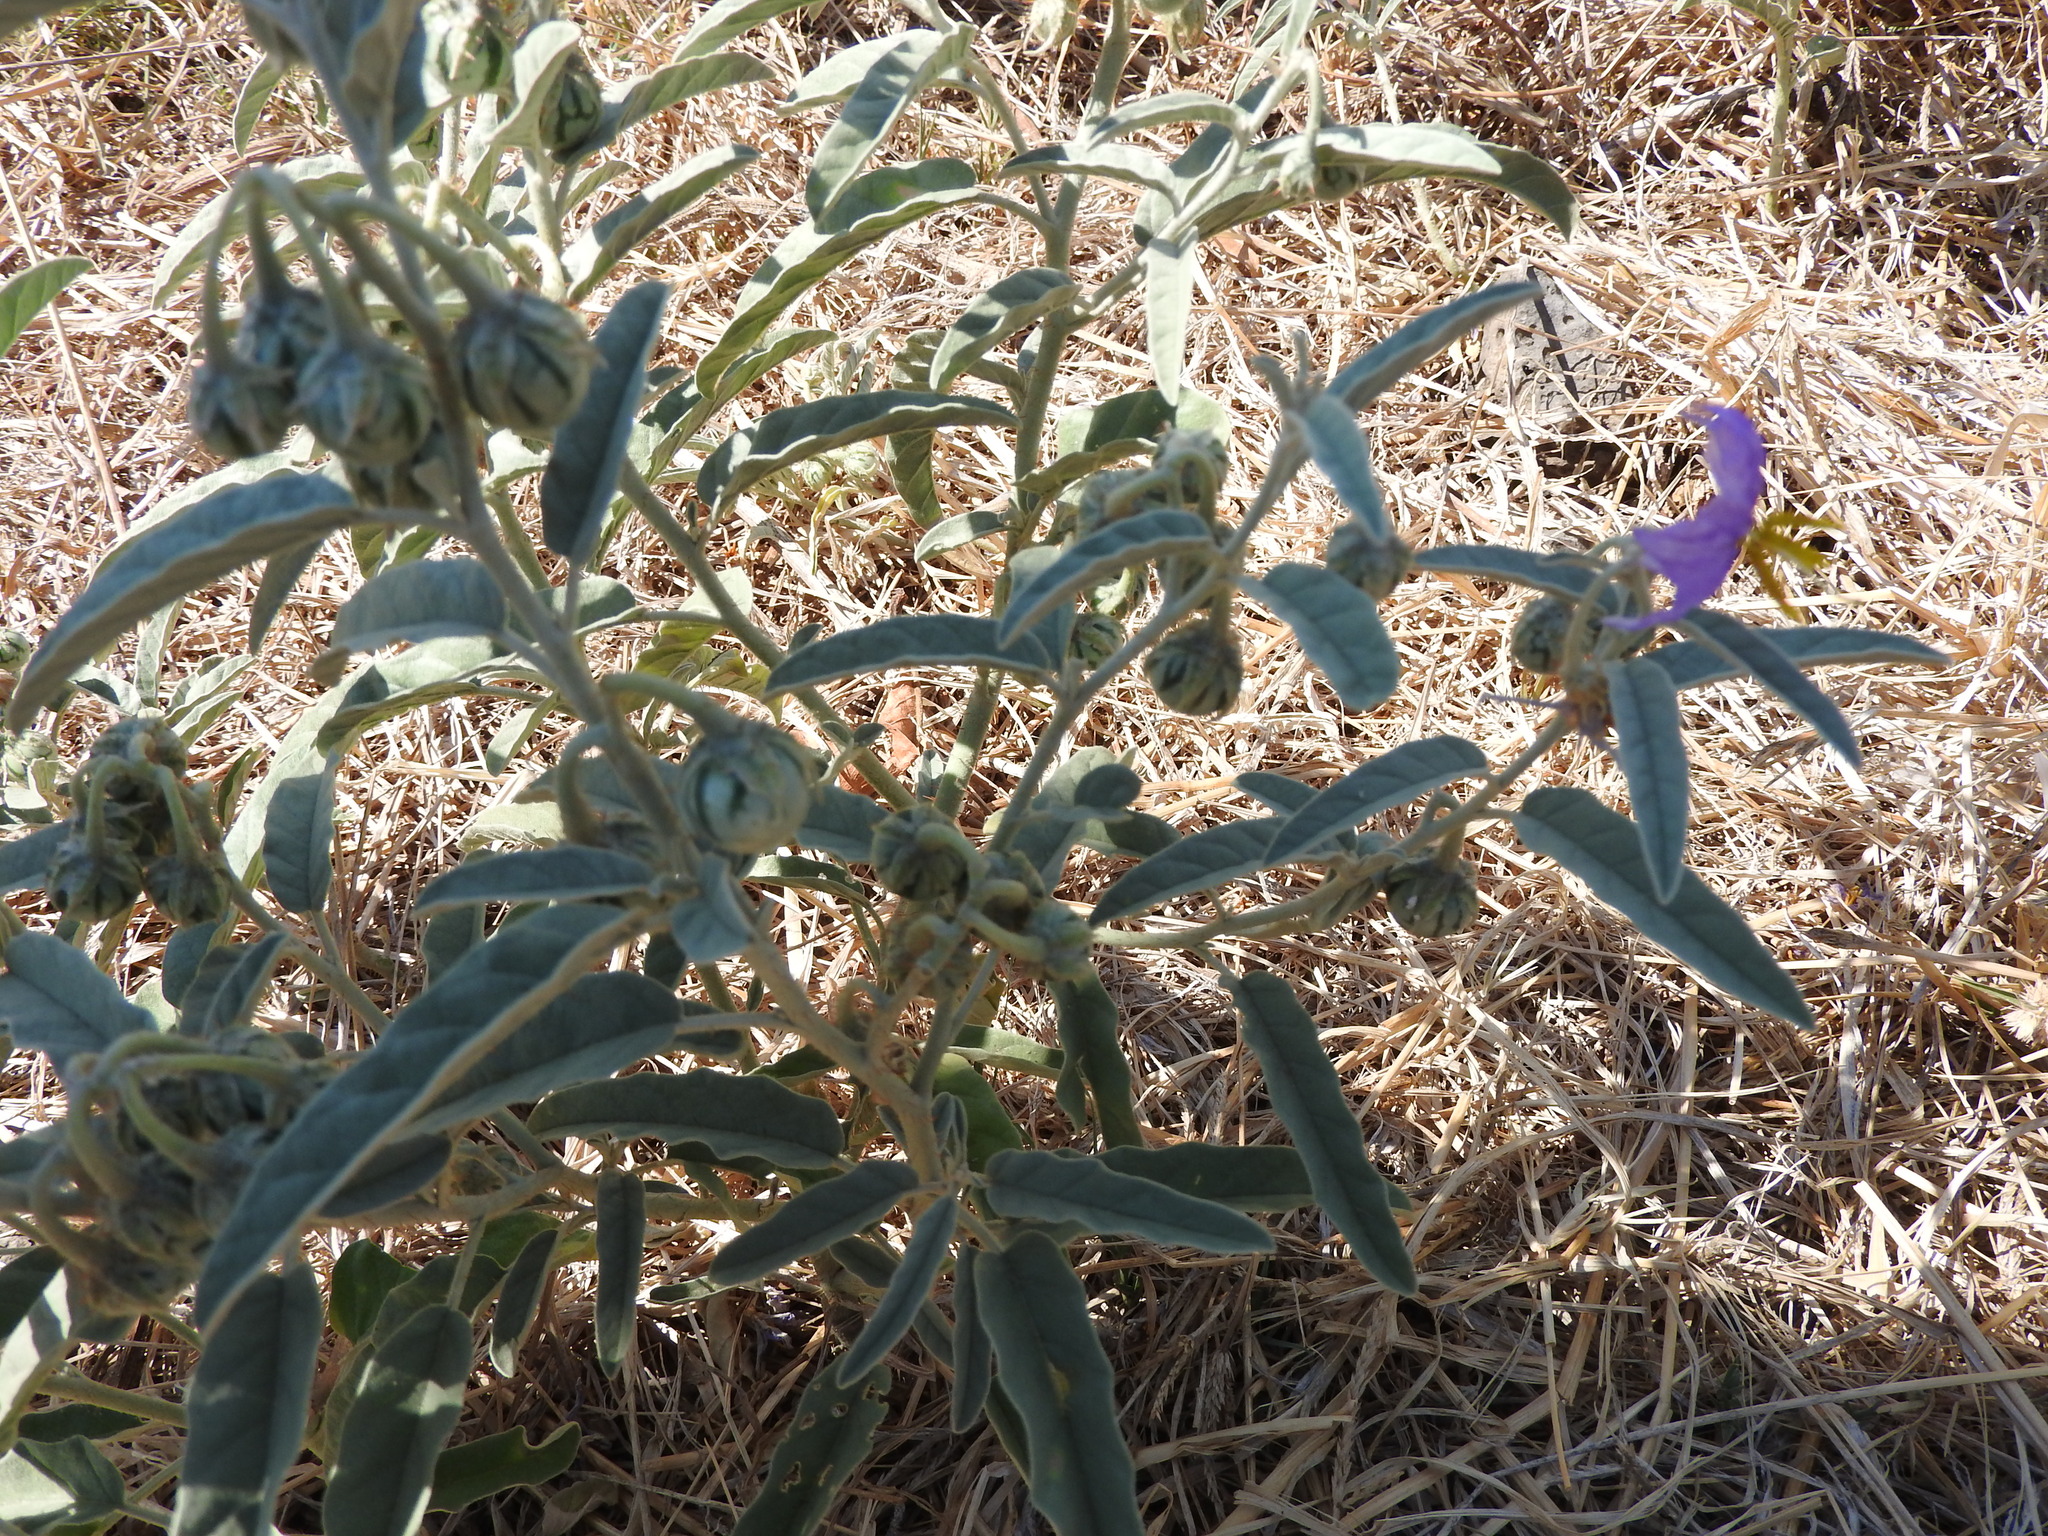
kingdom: Plantae
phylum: Tracheophyta
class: Magnoliopsida
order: Solanales
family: Solanaceae
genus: Solanum
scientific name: Solanum elaeagnifolium
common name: Silverleaf nightshade
